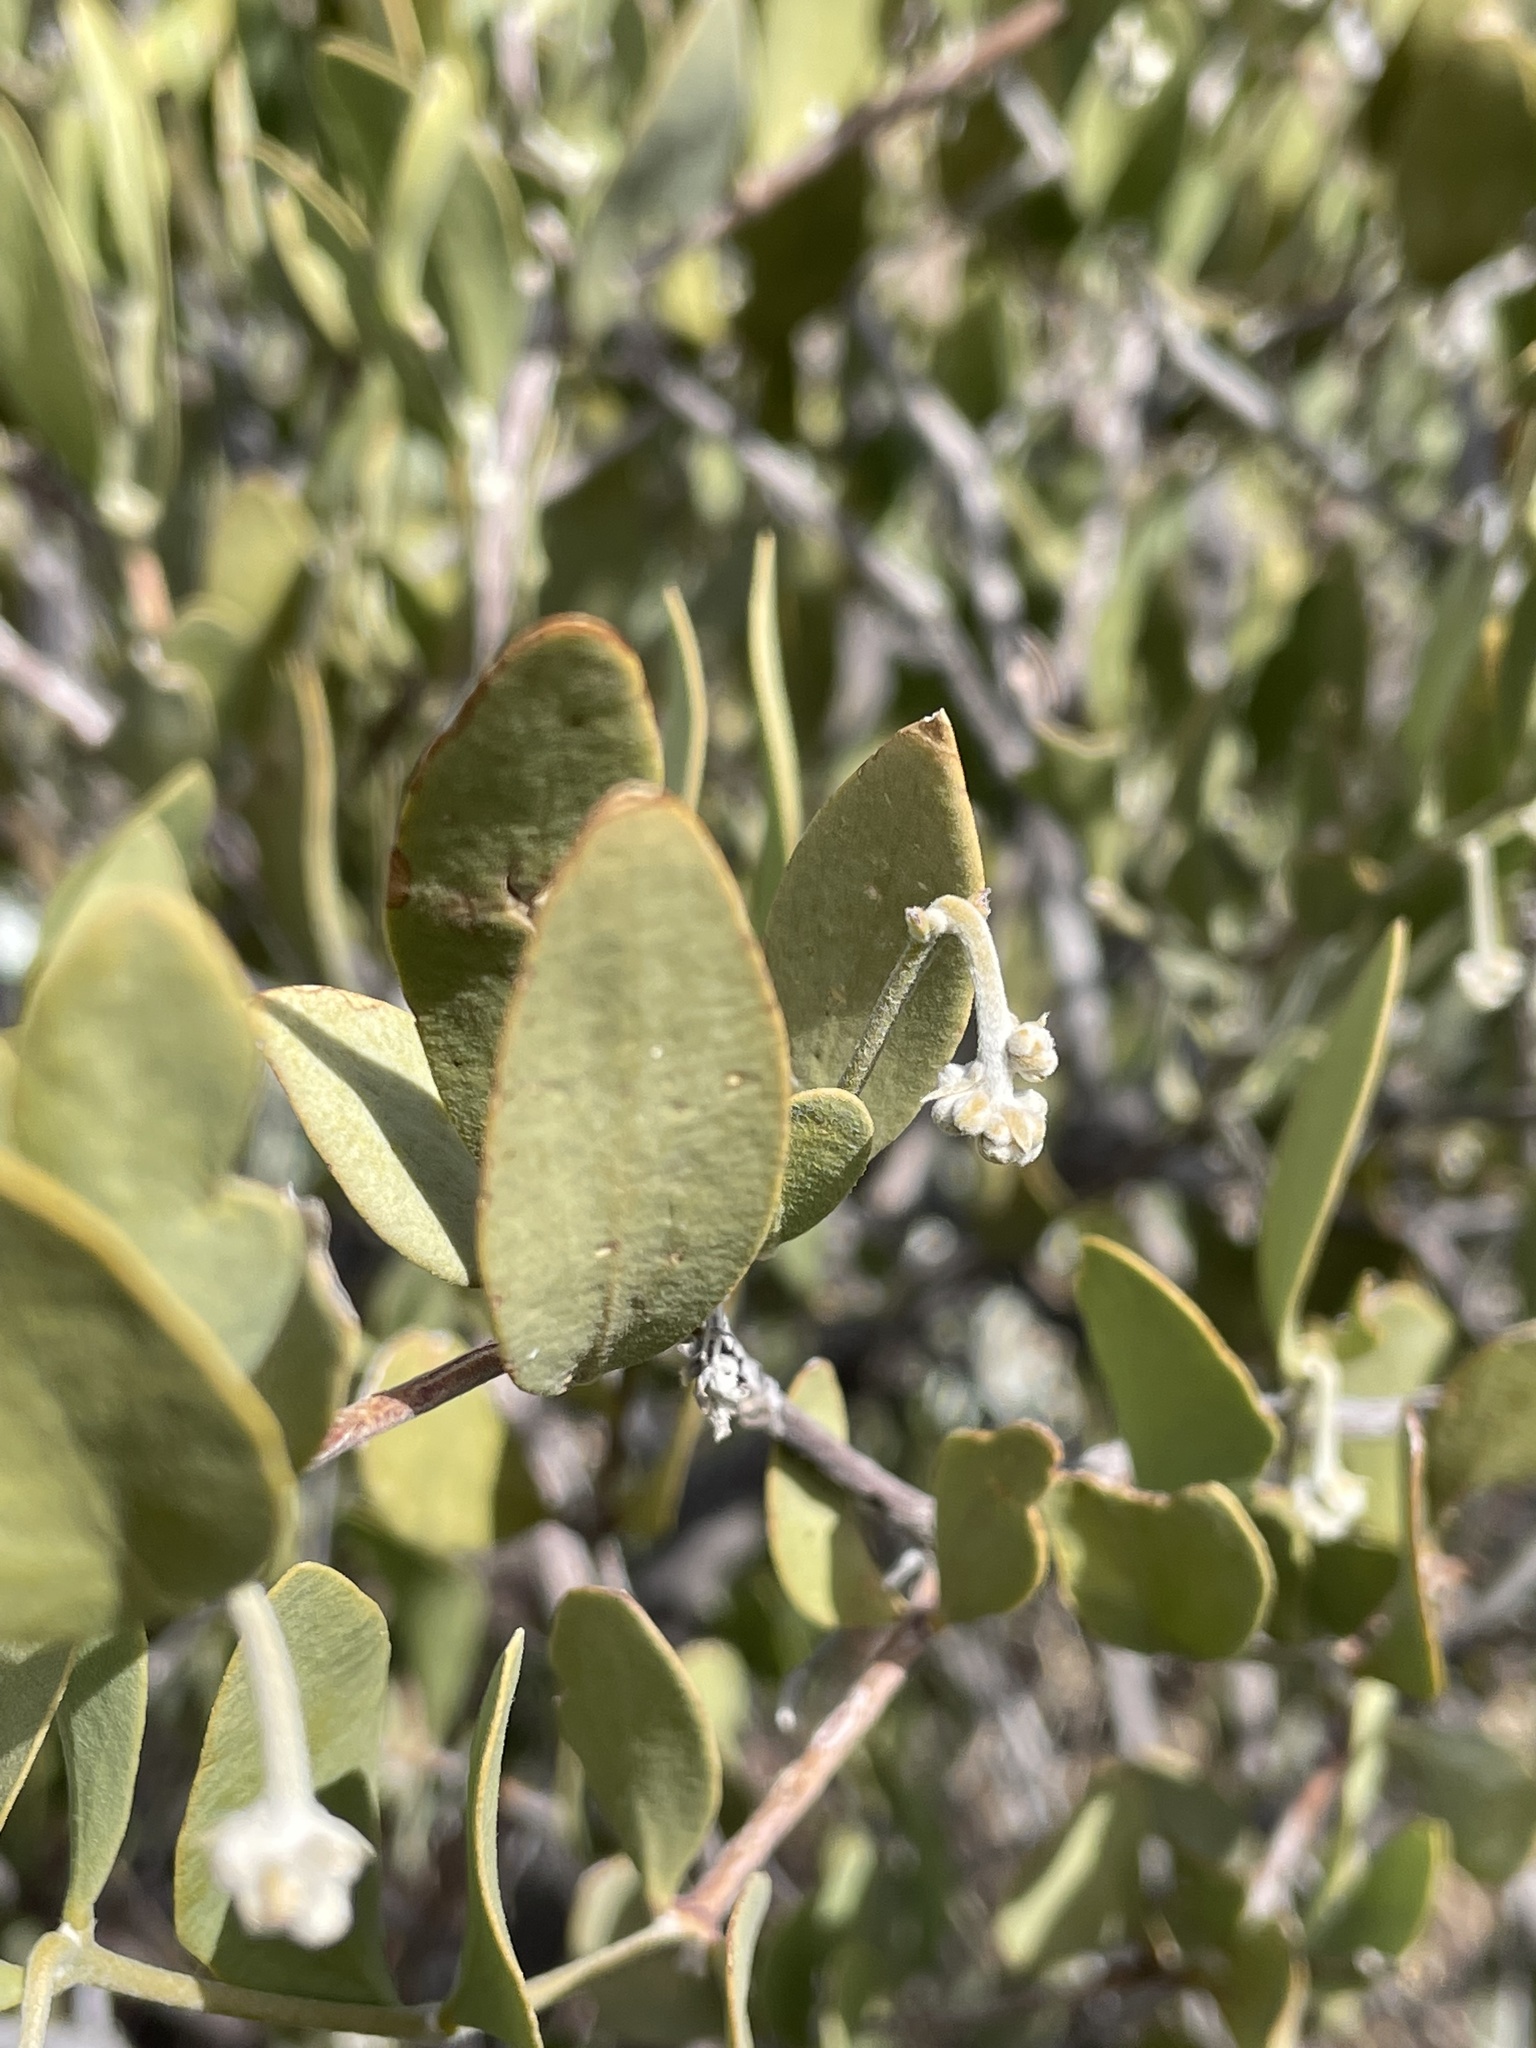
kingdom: Plantae
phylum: Tracheophyta
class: Magnoliopsida
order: Caryophyllales
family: Simmondsiaceae
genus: Simmondsia
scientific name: Simmondsia chinensis
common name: Jojoba
